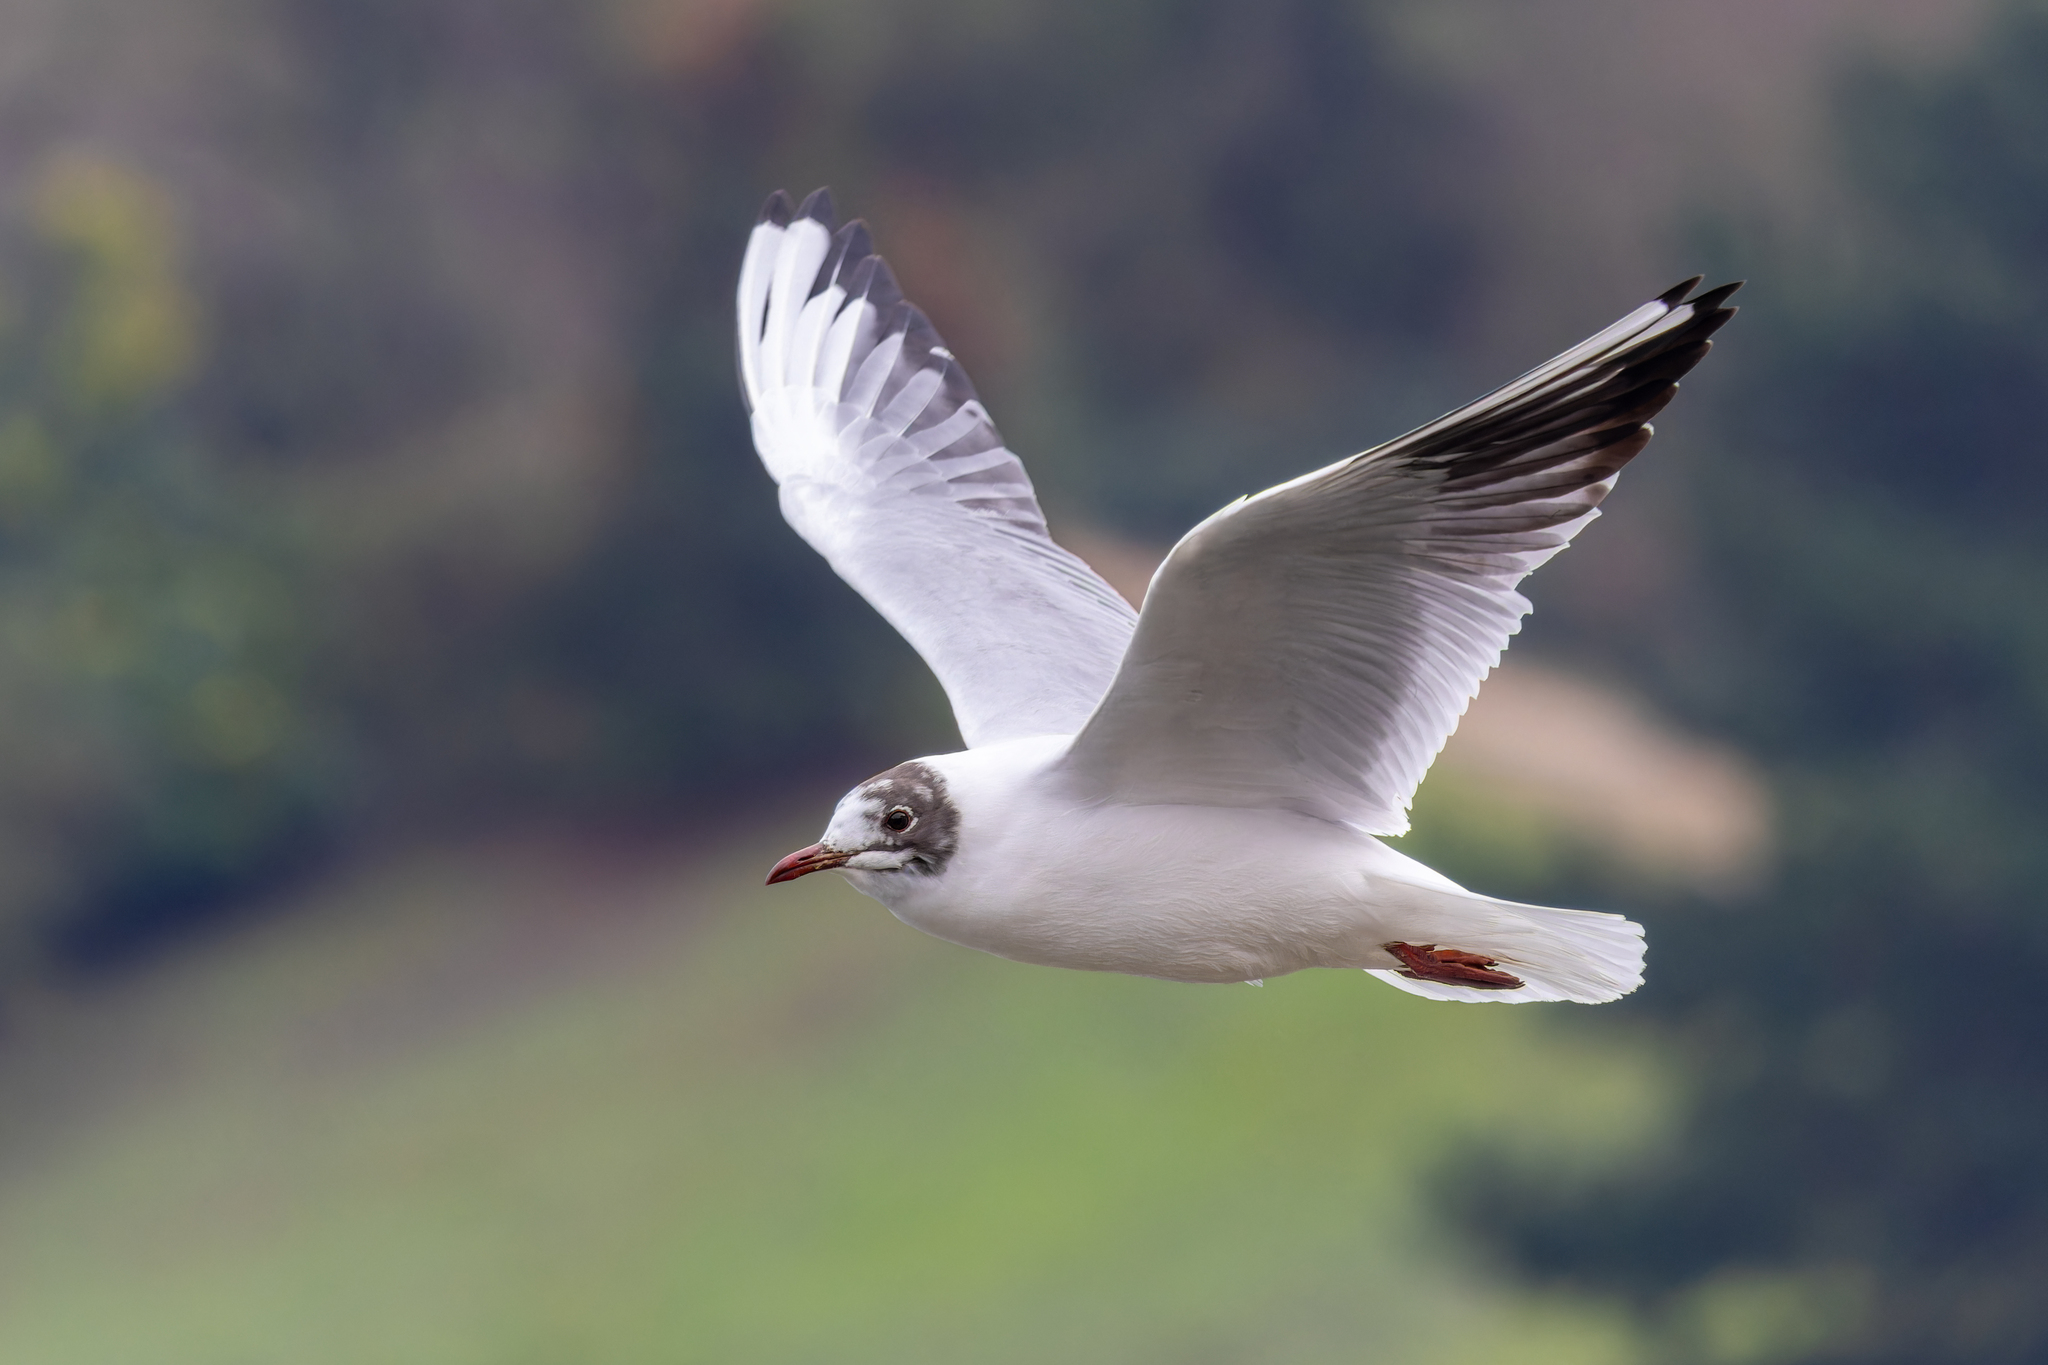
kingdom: Animalia
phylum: Chordata
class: Aves
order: Charadriiformes
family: Laridae
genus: Chroicocephalus
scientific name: Chroicocephalus ridibundus
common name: Black-headed gull
